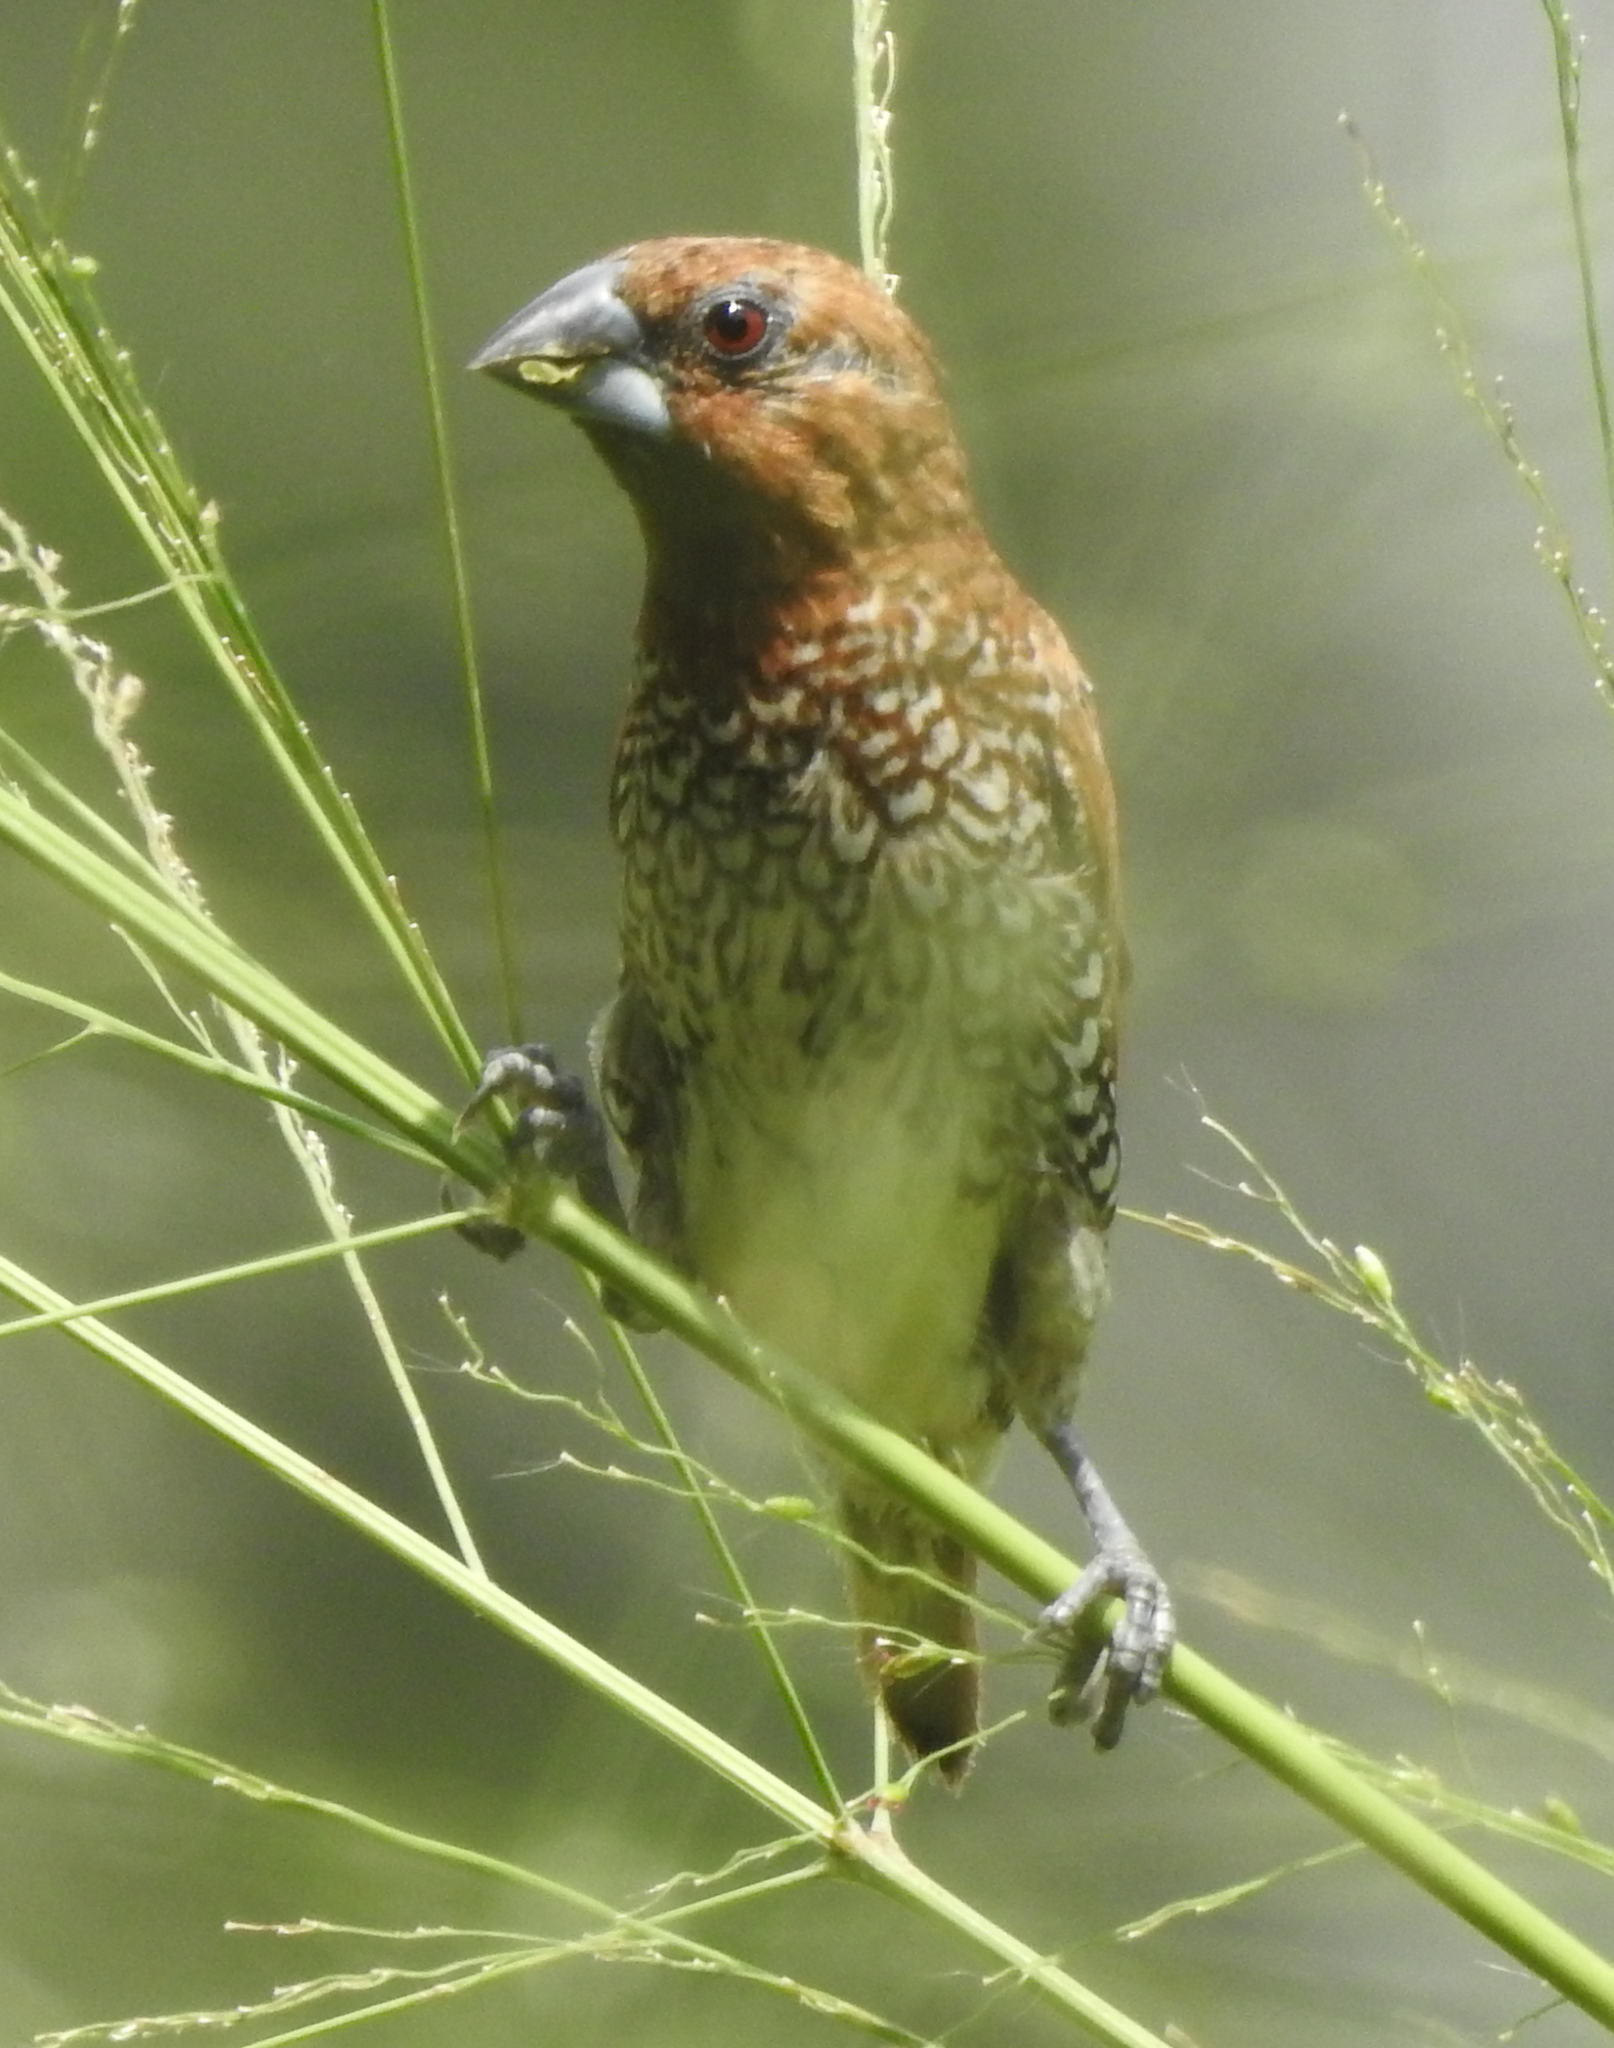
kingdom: Animalia
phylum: Chordata
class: Aves
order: Passeriformes
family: Estrildidae
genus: Lonchura
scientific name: Lonchura punctulata
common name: Scaly-breasted munia
